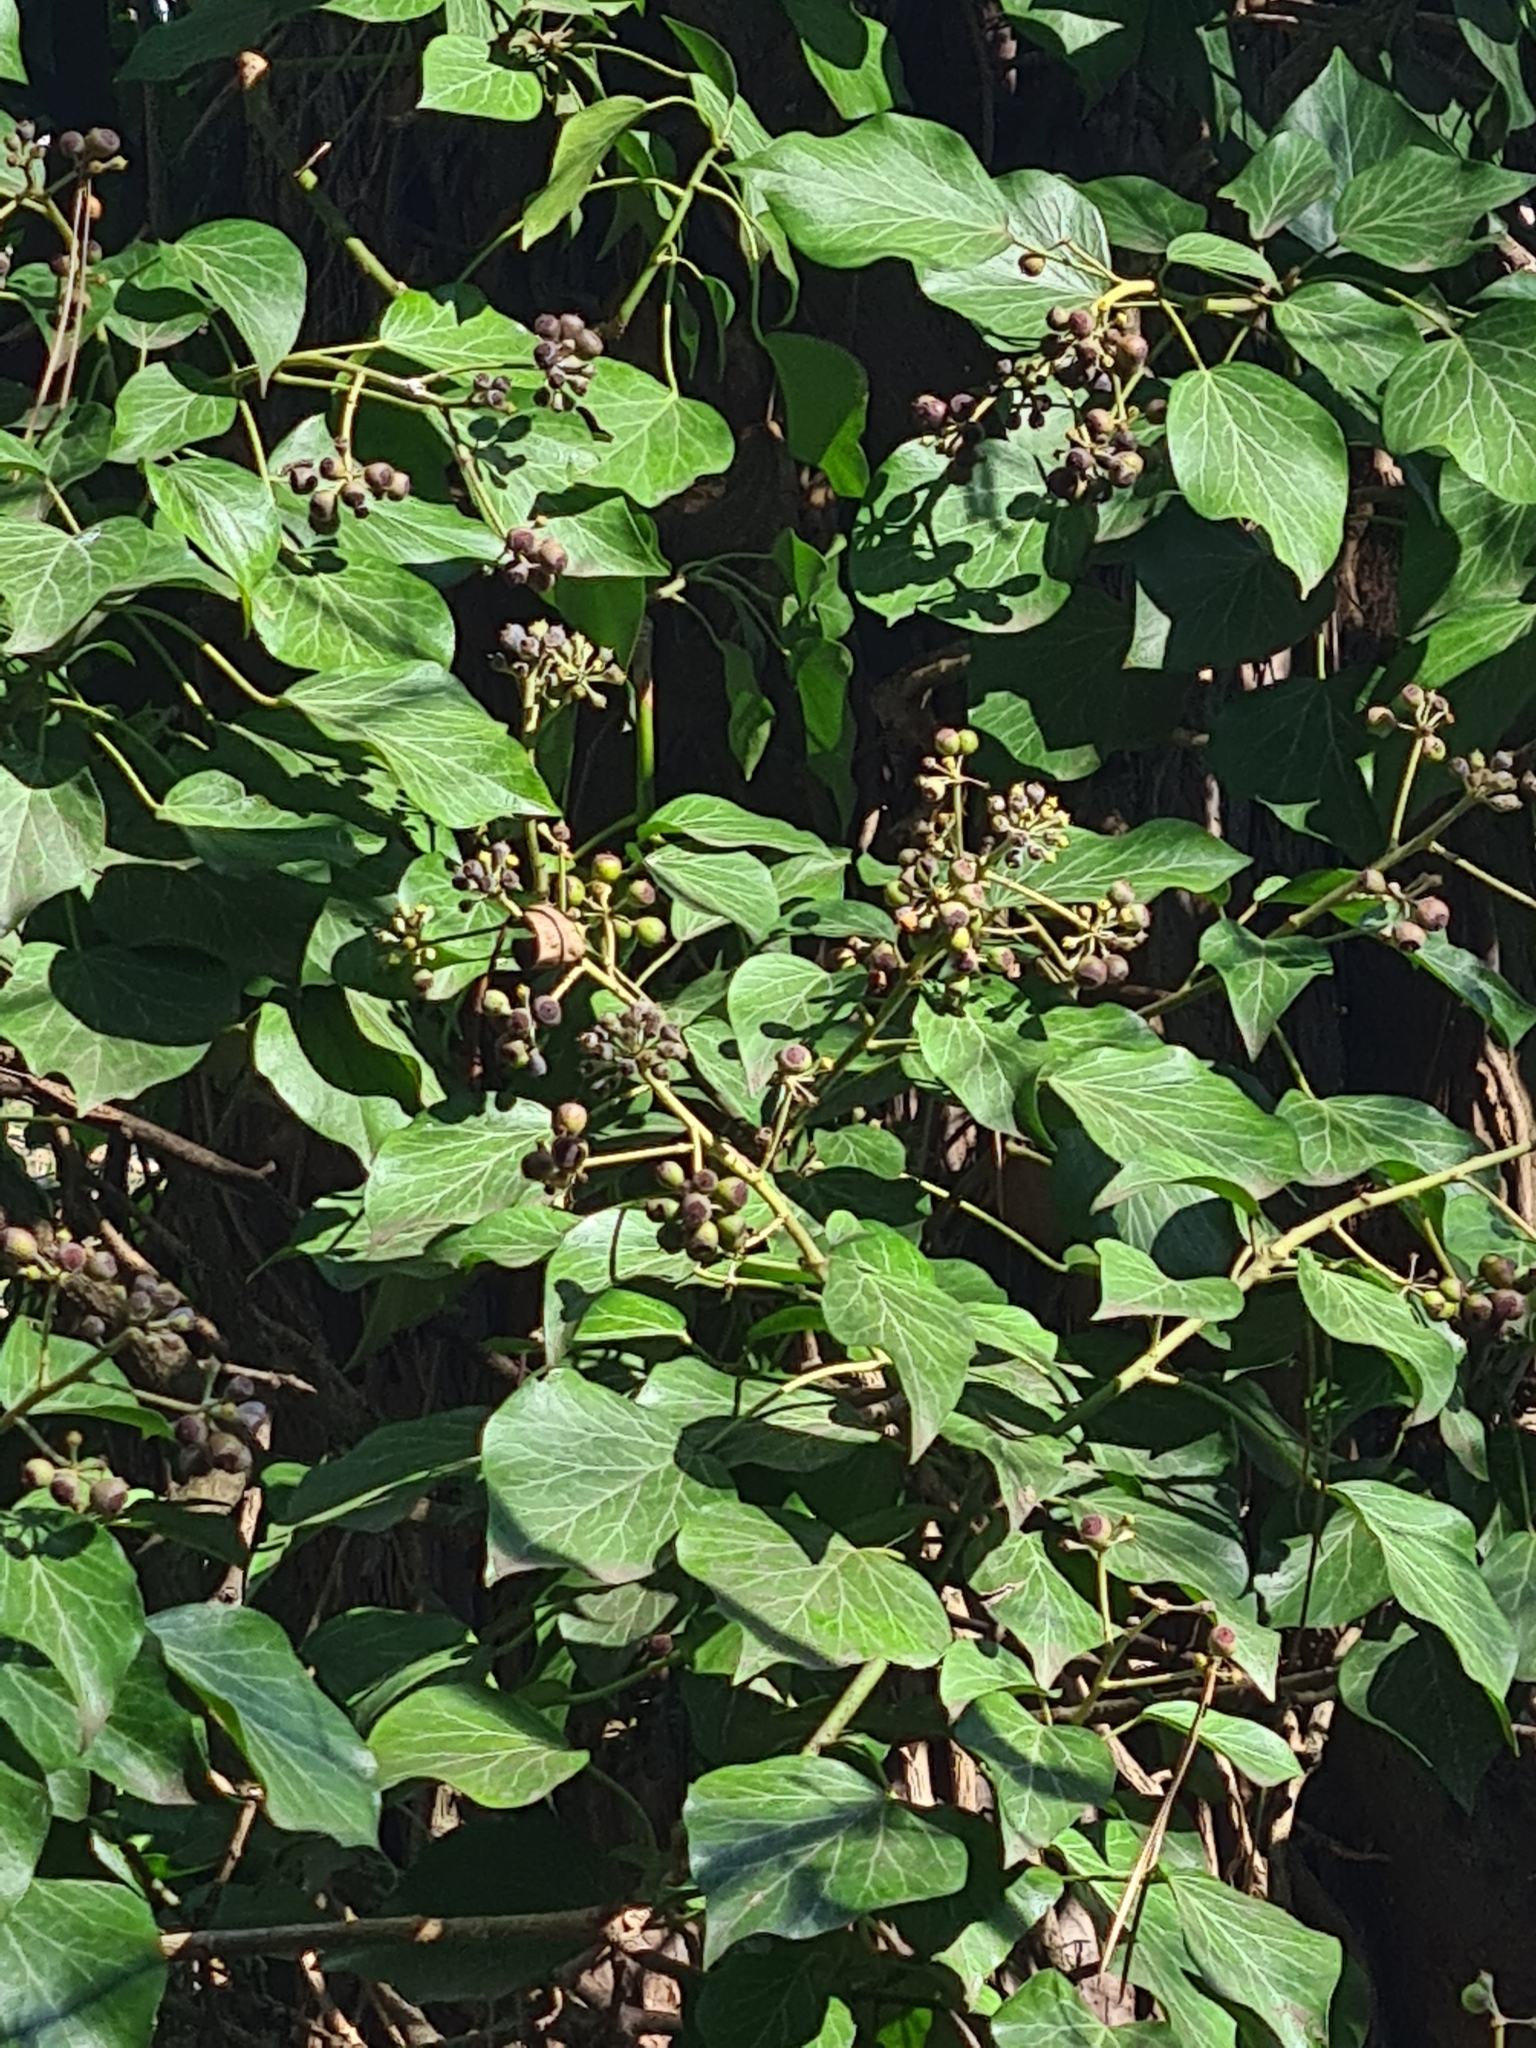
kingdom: Plantae
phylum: Tracheophyta
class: Magnoliopsida
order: Apiales
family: Araliaceae
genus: Hedera
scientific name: Hedera helix
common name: Ivy
